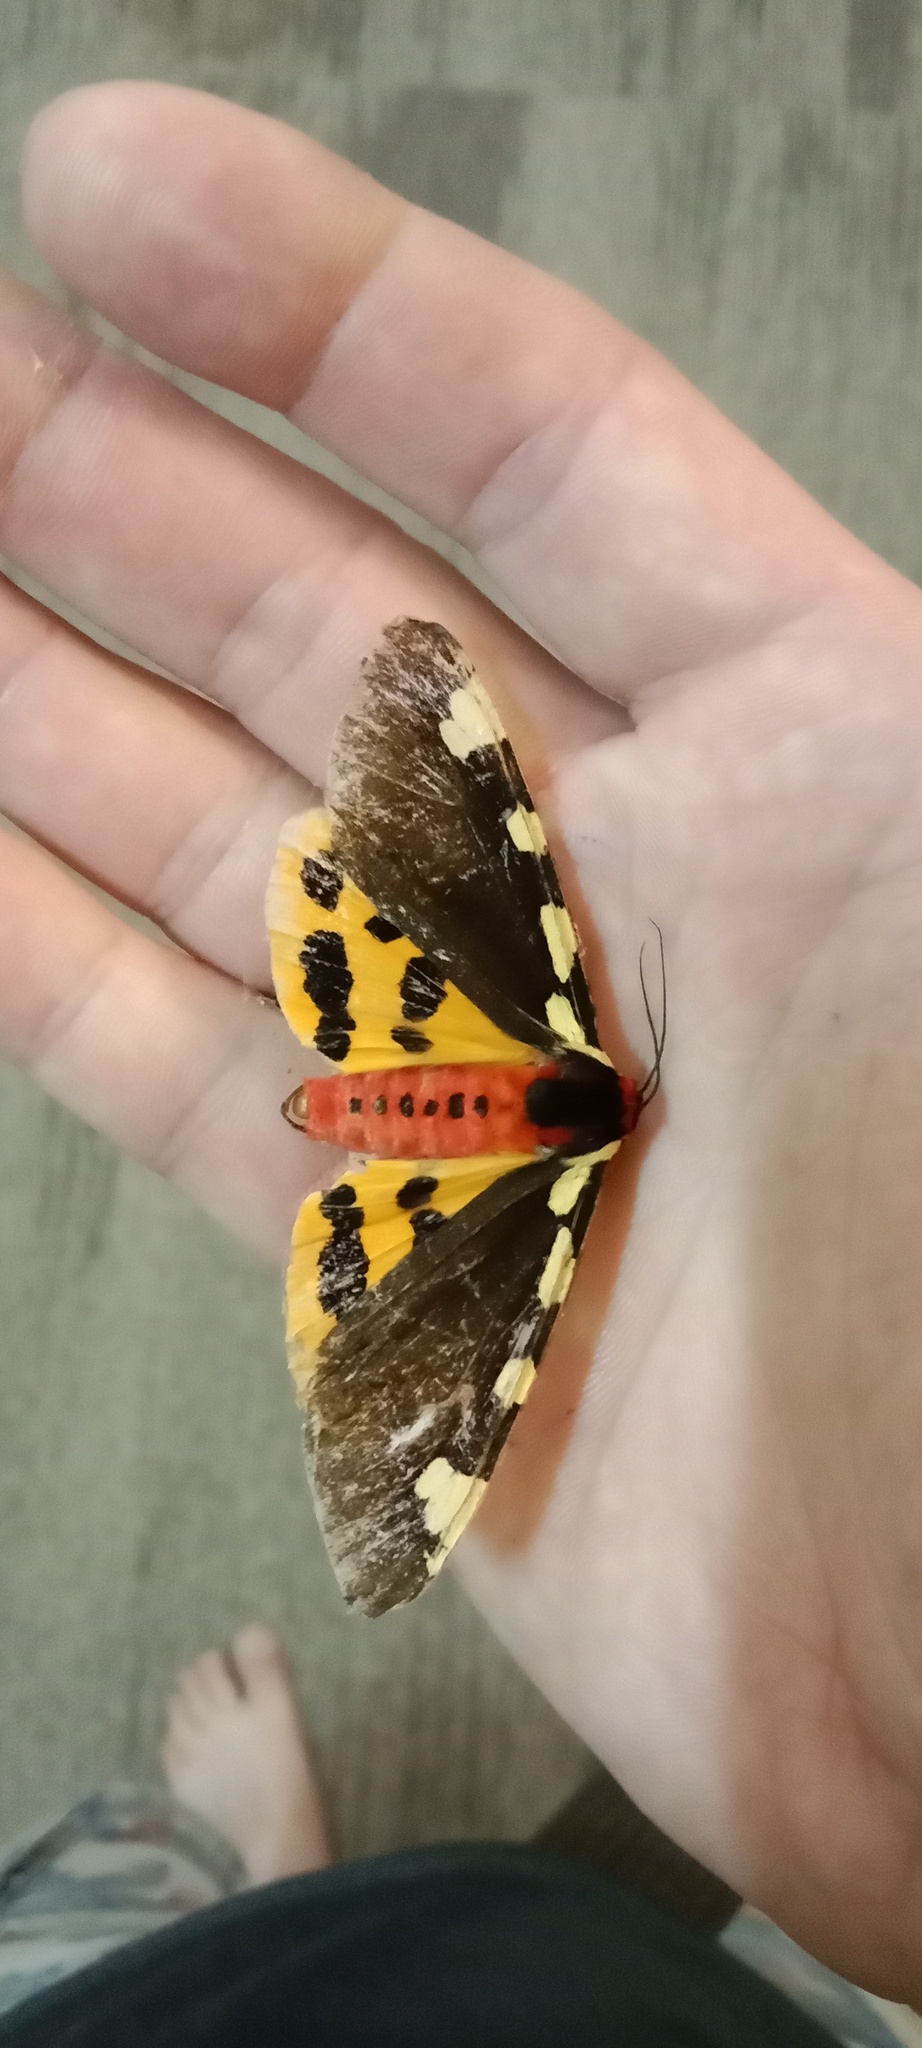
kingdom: Animalia
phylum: Arthropoda
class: Insecta
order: Lepidoptera
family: Erebidae
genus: Pericallia
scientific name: Pericallia matronula
